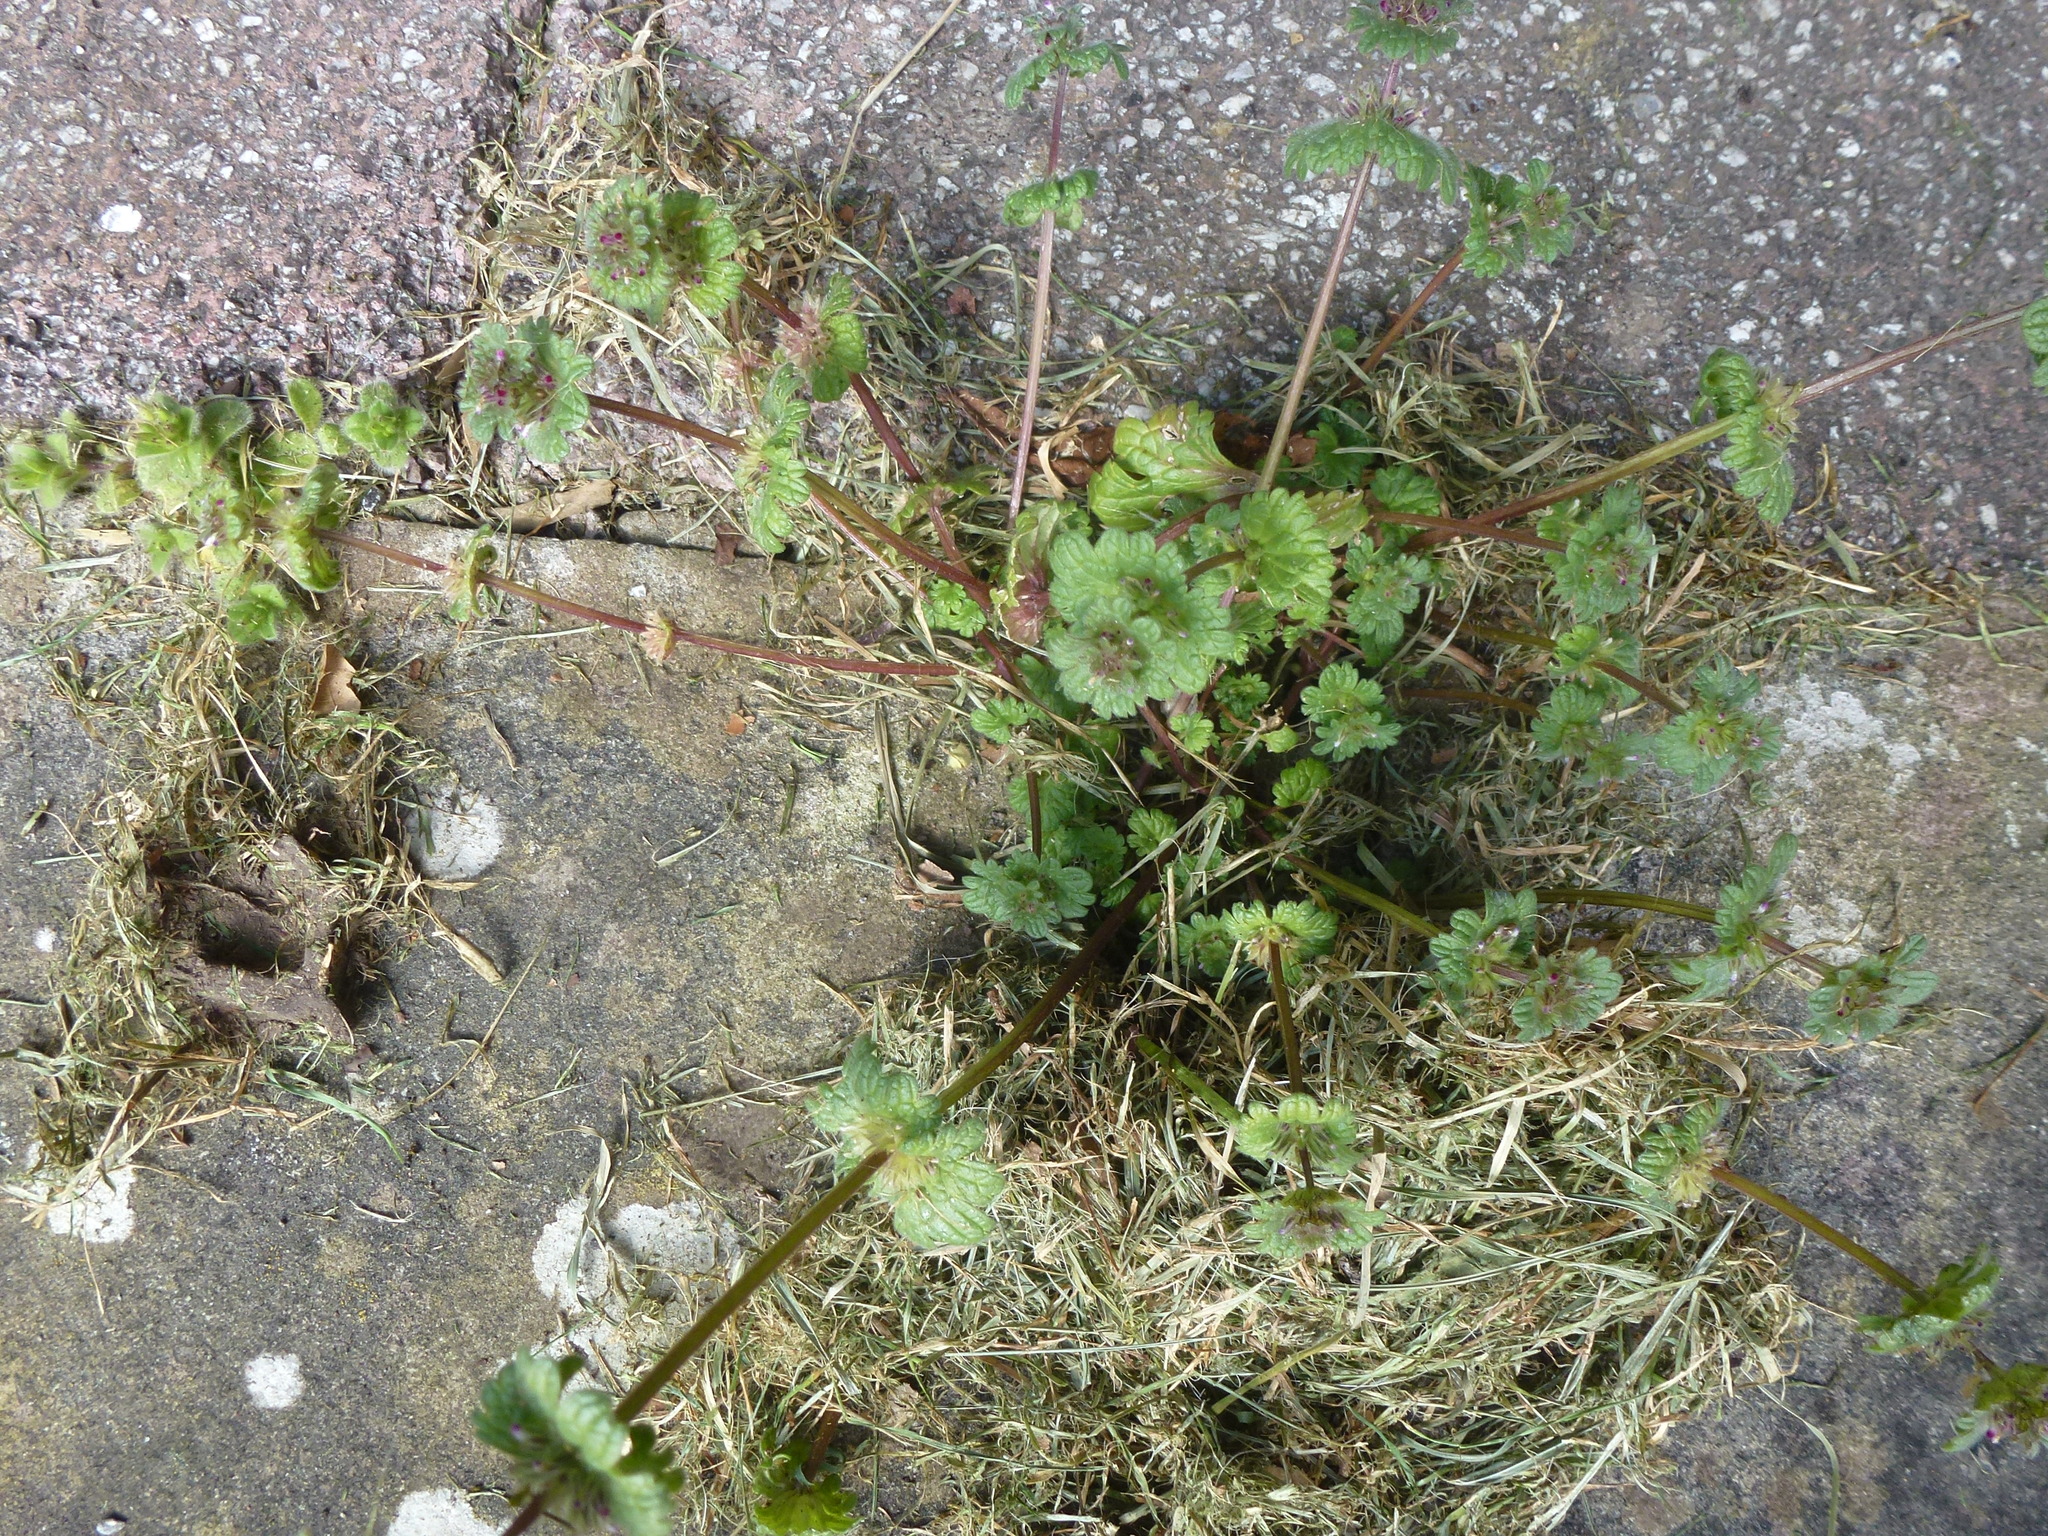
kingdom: Plantae
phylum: Tracheophyta
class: Magnoliopsida
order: Lamiales
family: Lamiaceae
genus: Lamium
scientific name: Lamium amplexicaule
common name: Henbit dead-nettle
